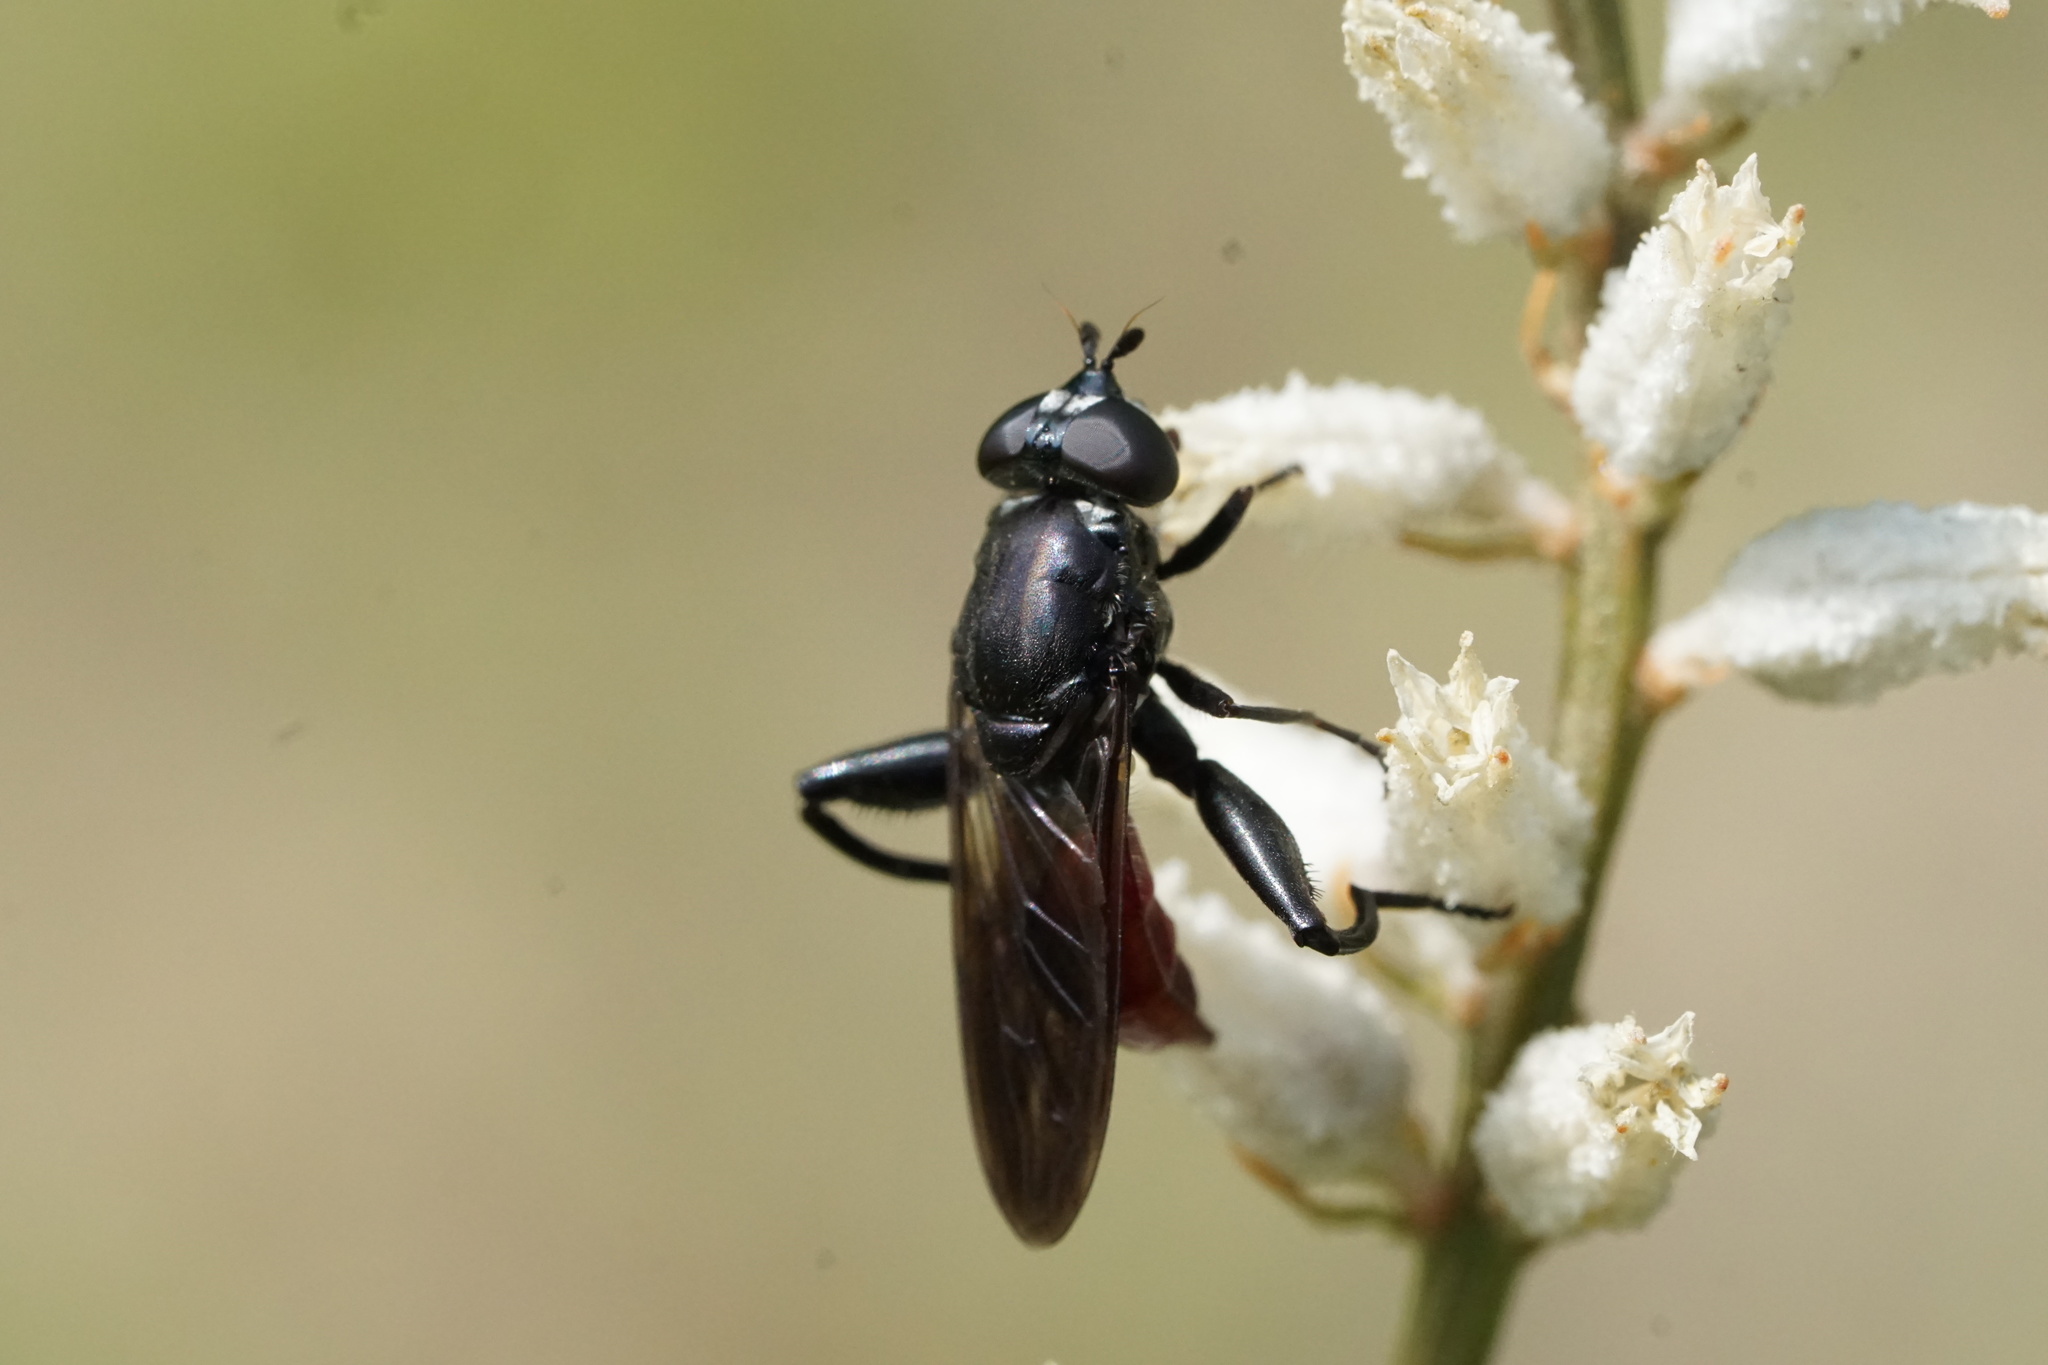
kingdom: Animalia
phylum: Arthropoda
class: Insecta
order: Diptera
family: Syrphidae
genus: Chalcosyrphus
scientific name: Chalcosyrphus piger
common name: Short-haired leafwalker
